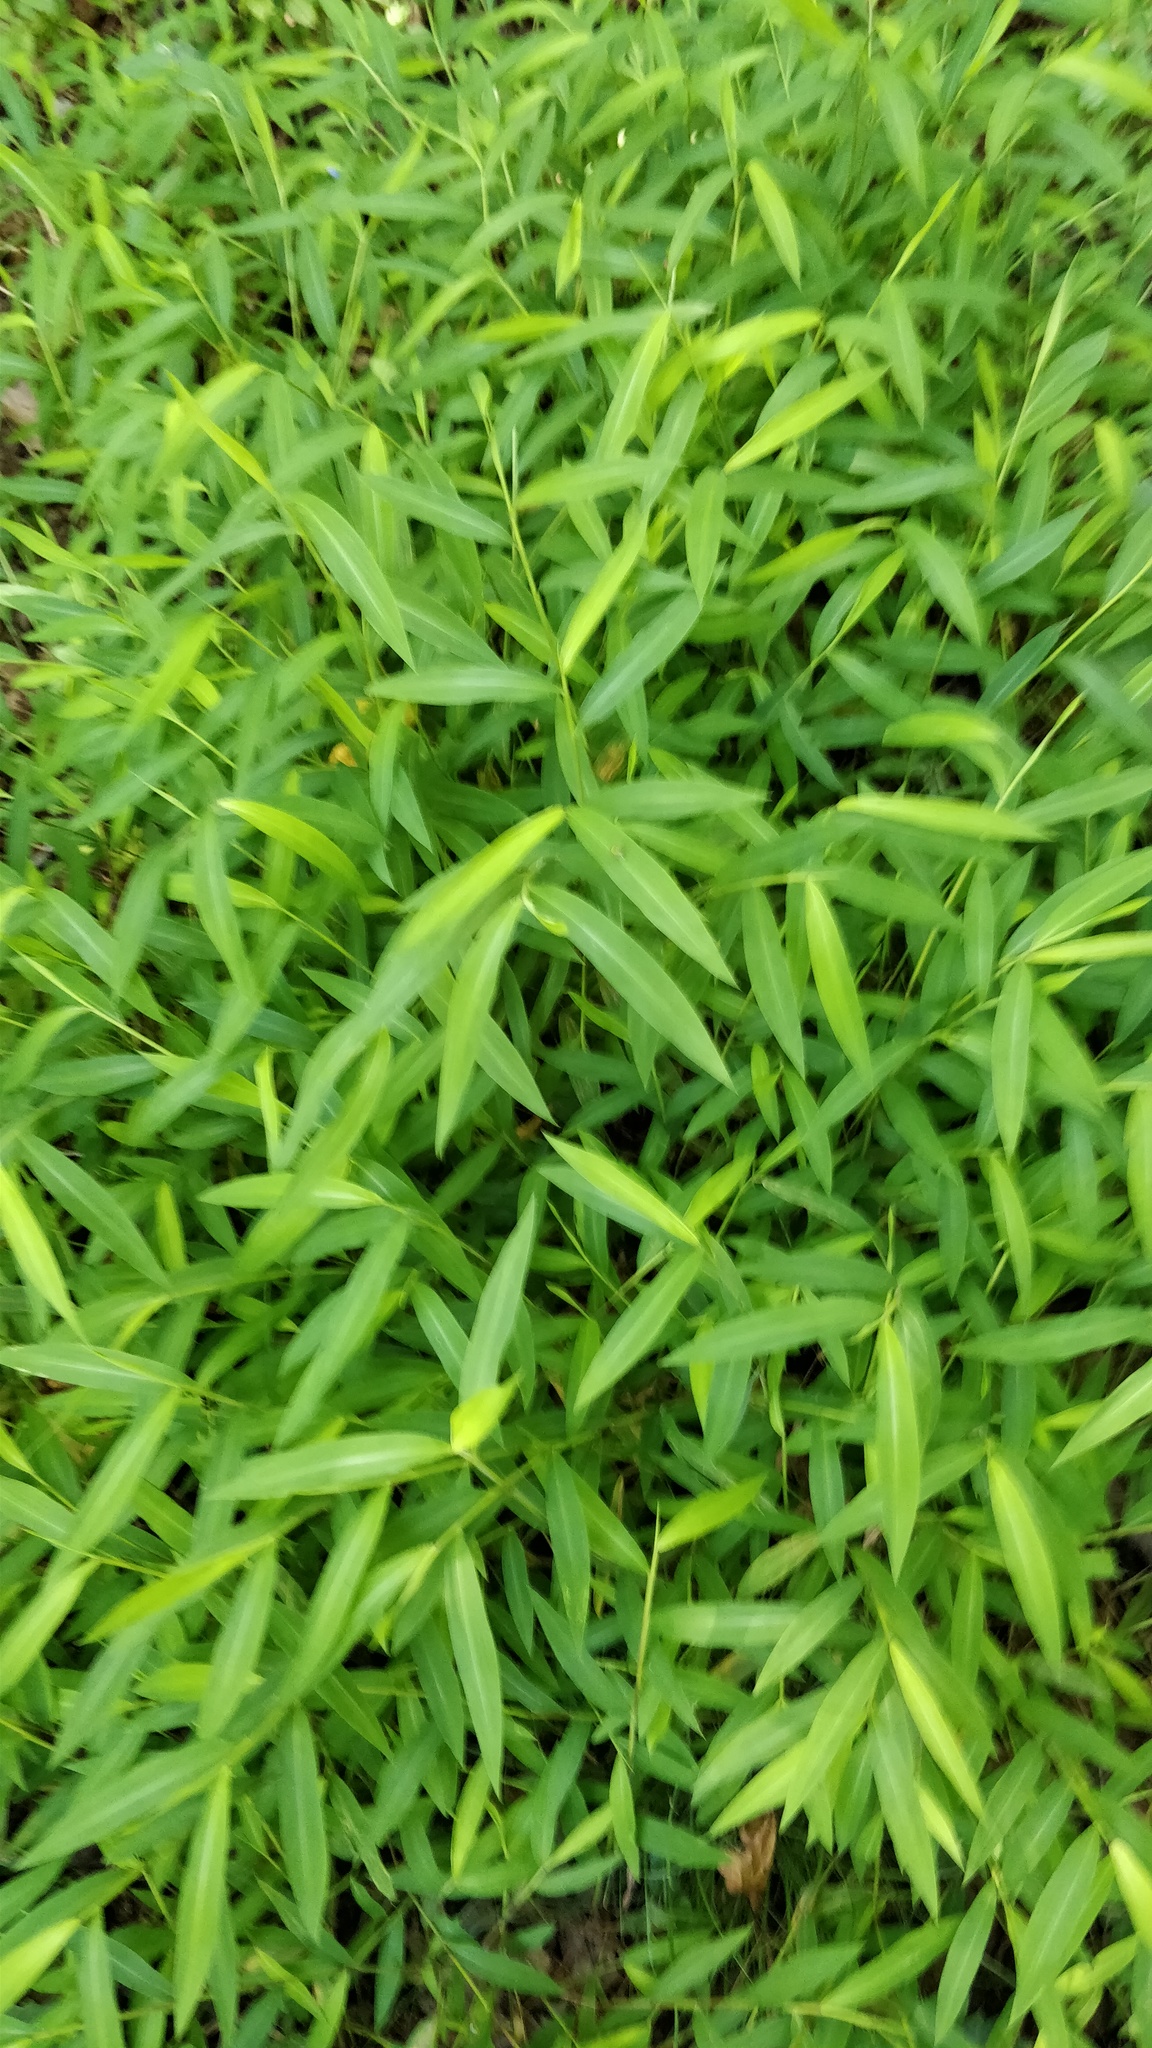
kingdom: Plantae
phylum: Tracheophyta
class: Liliopsida
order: Poales
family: Poaceae
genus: Microstegium
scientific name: Microstegium vimineum
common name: Japanese stiltgrass
